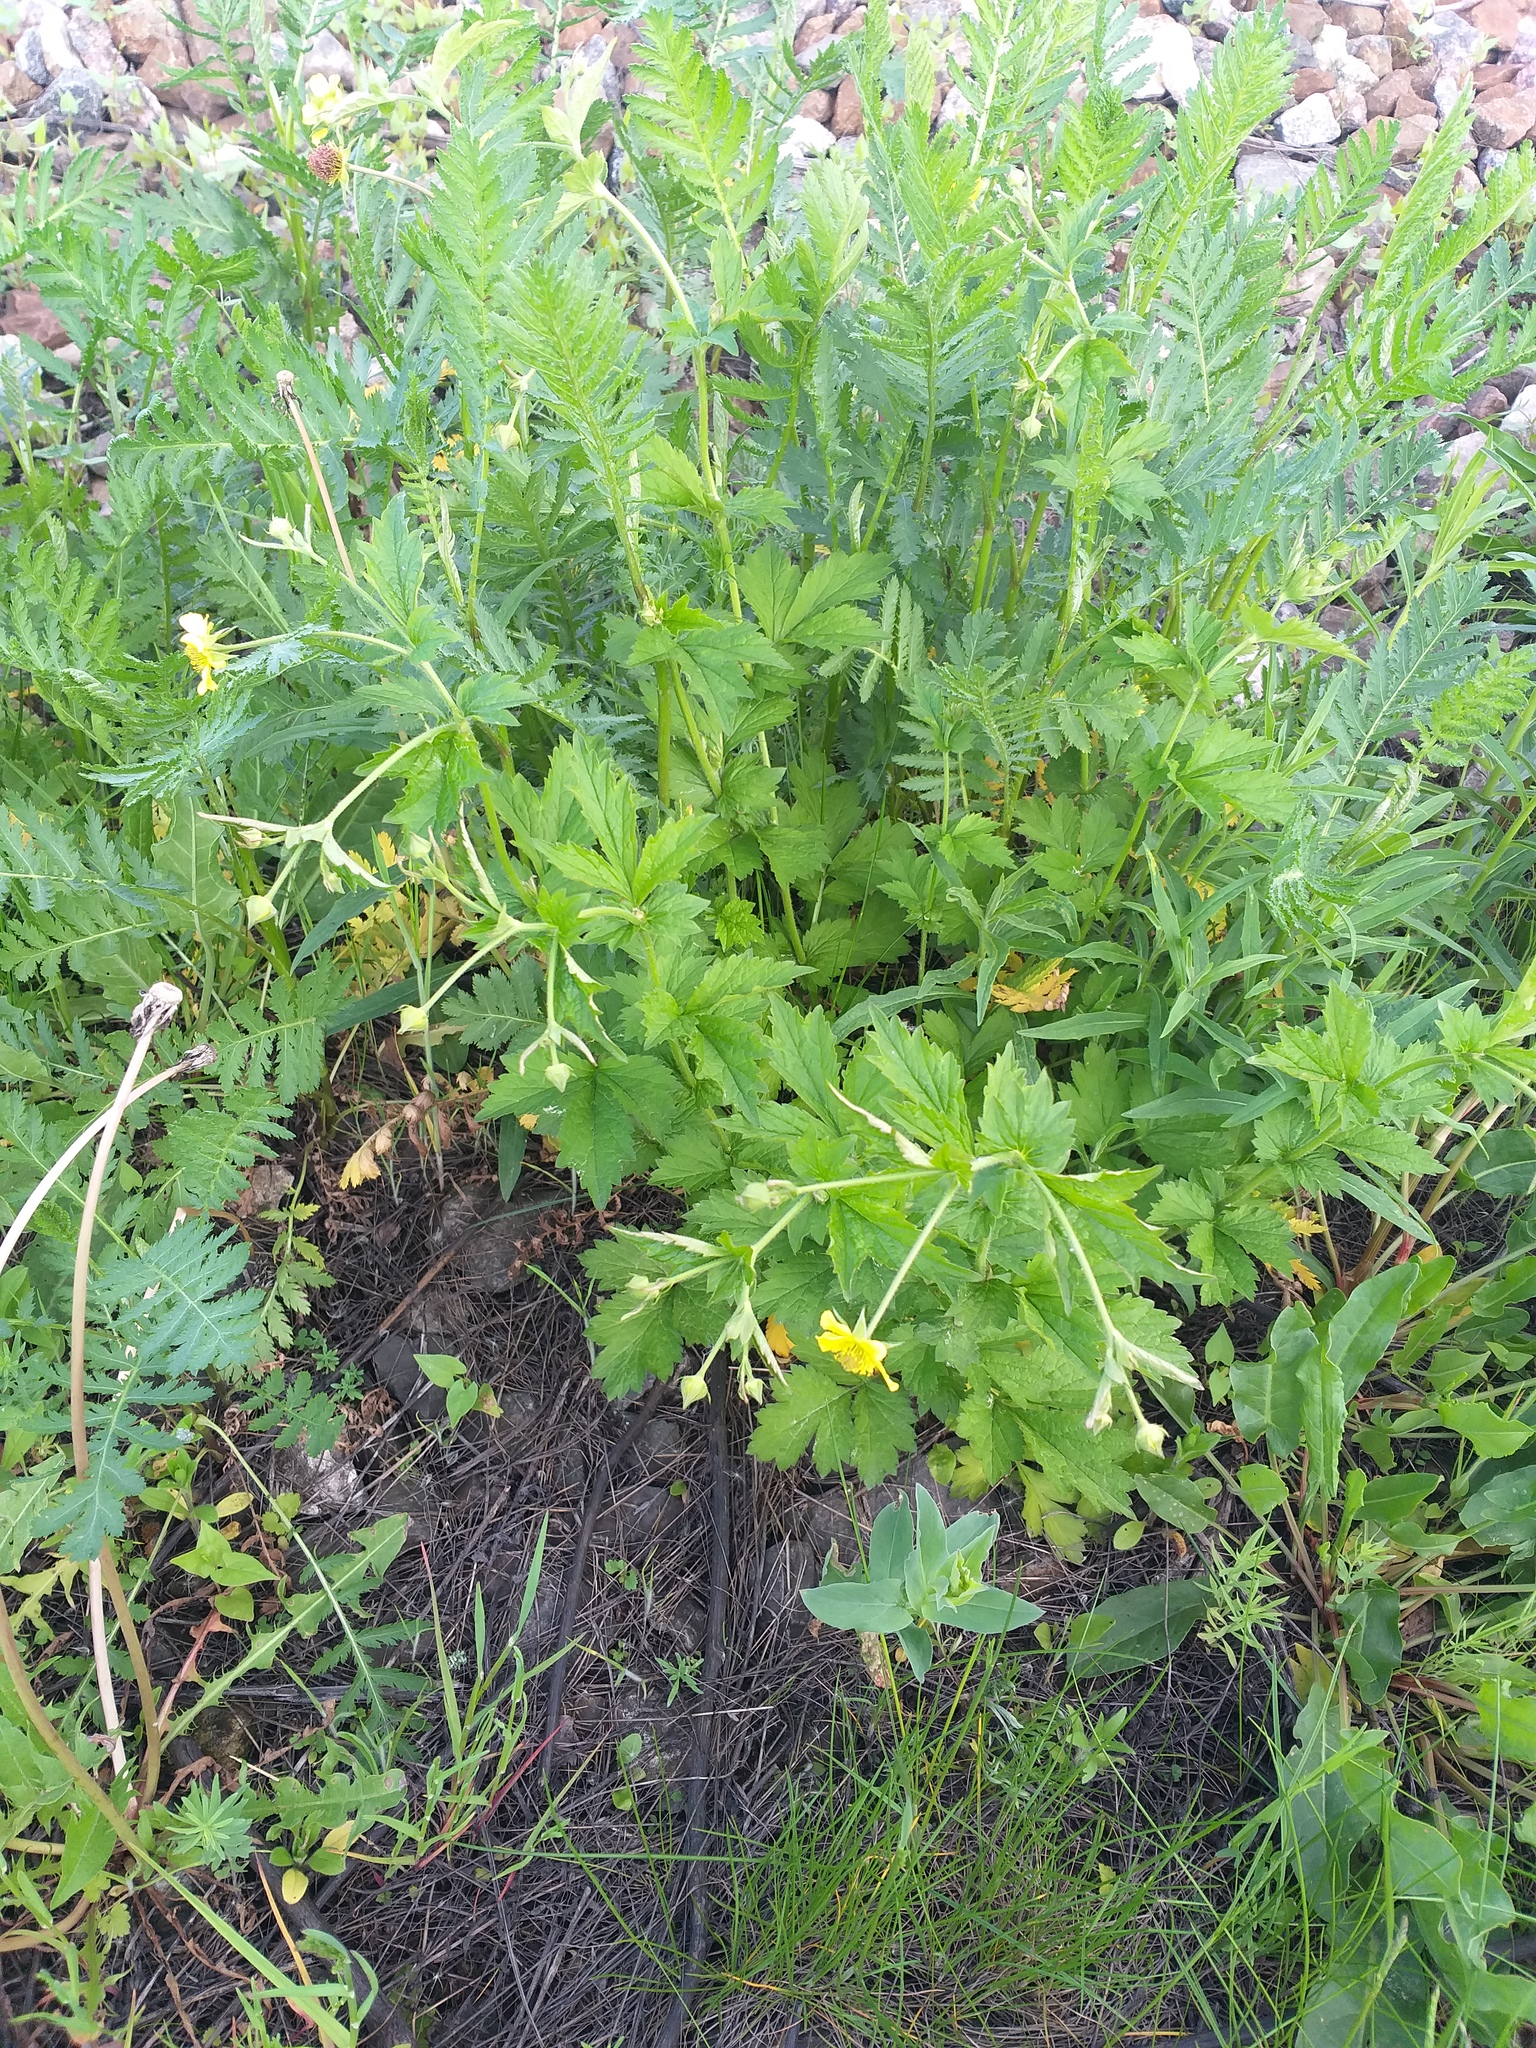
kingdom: Plantae
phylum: Tracheophyta
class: Magnoliopsida
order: Rosales
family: Rosaceae
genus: Geum
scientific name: Geum urbanum
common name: Wood avens
